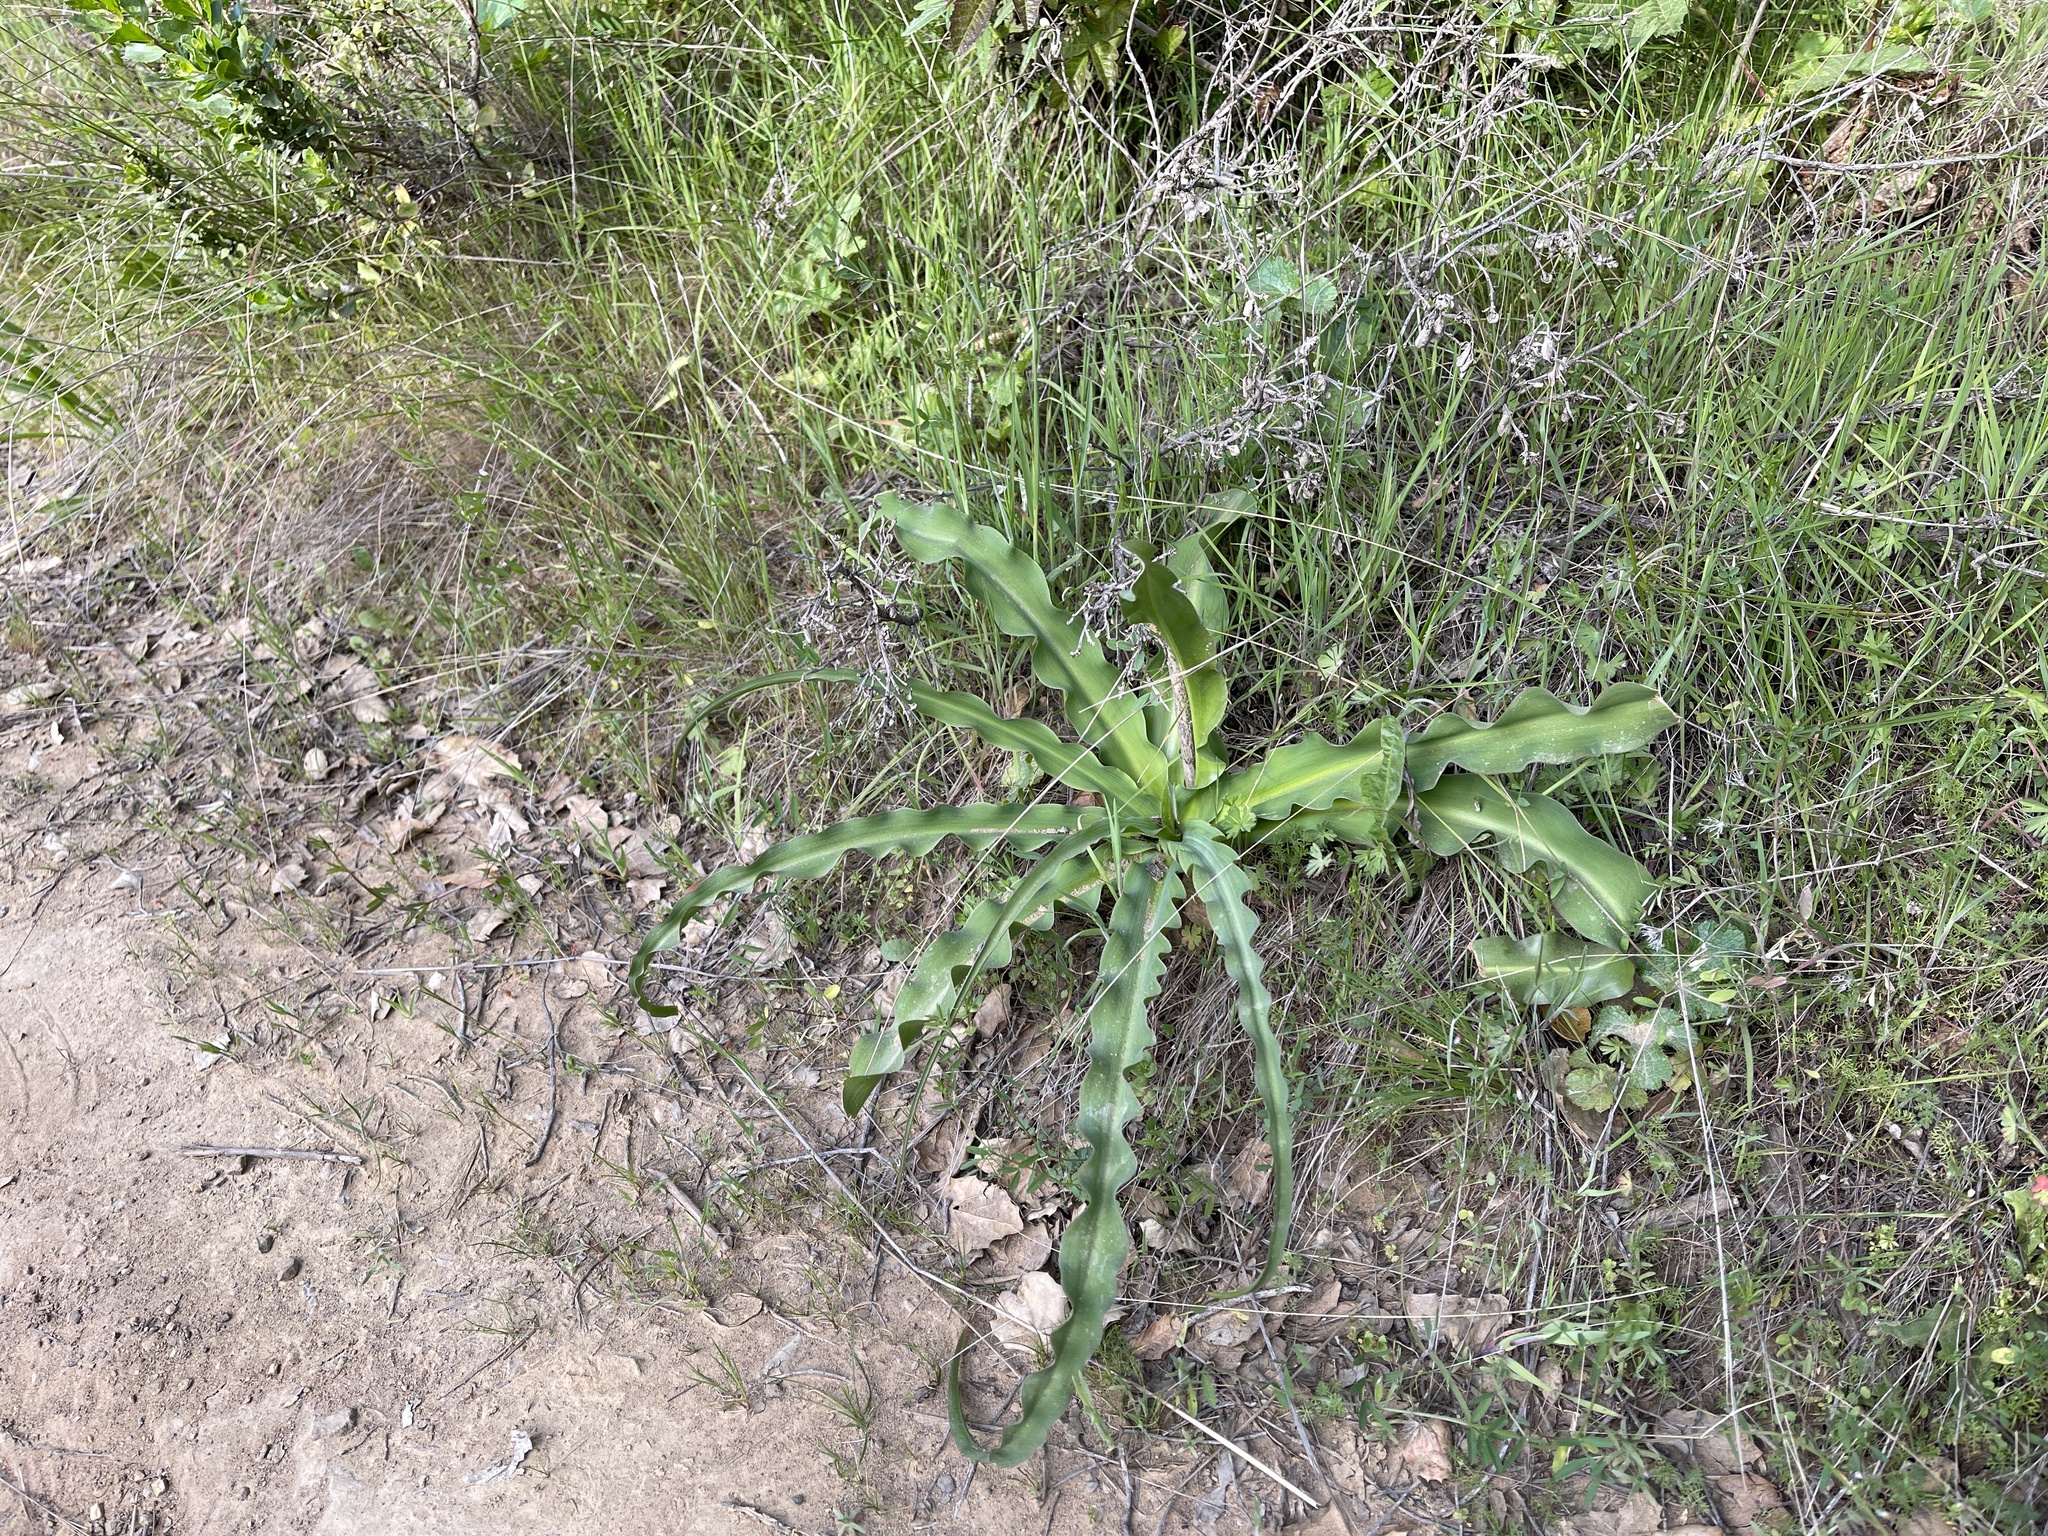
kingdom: Plantae
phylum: Tracheophyta
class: Liliopsida
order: Asparagales
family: Asparagaceae
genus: Chlorogalum
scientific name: Chlorogalum pomeridianum
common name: Amole
